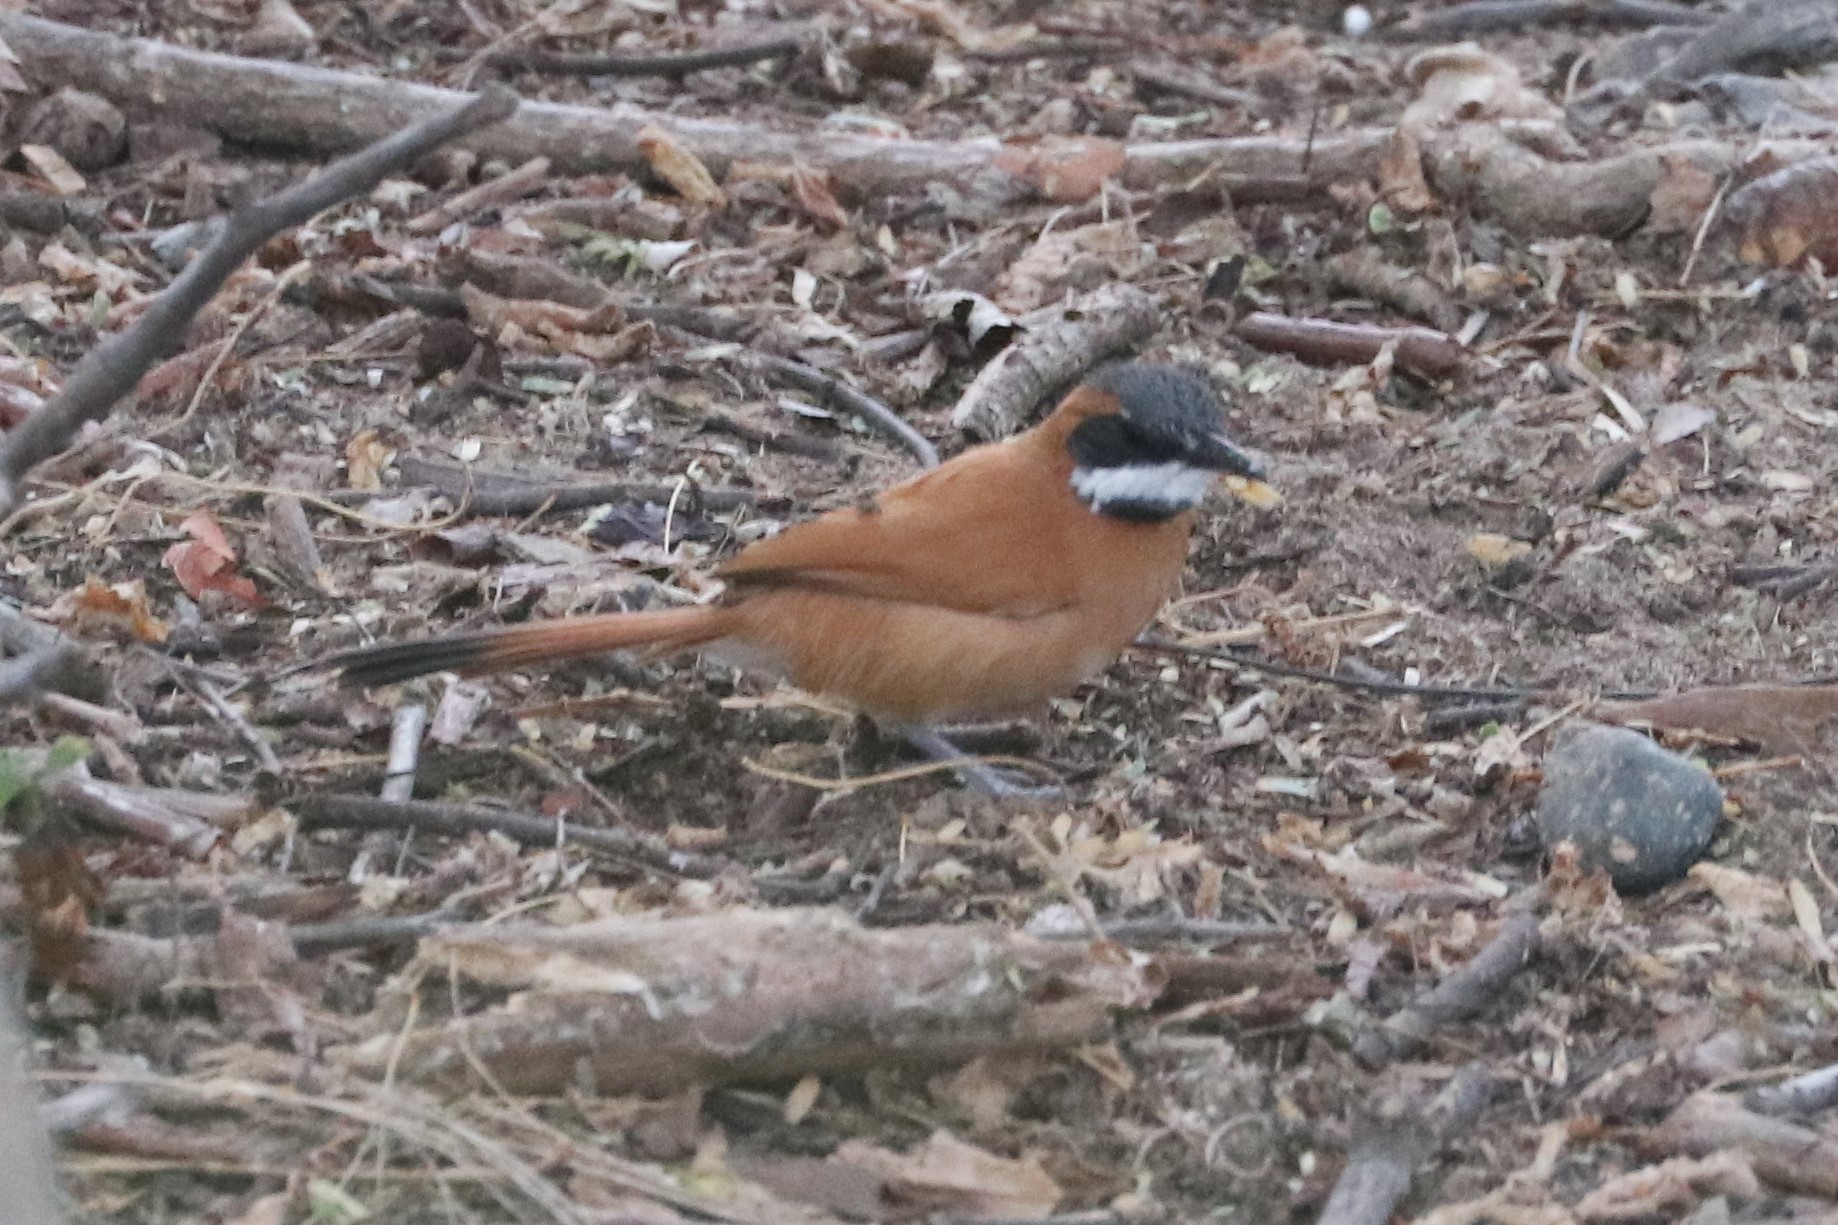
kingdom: Animalia
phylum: Chordata
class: Aves
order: Passeriformes
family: Furnariidae
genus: Synallaxis
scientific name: Synallaxis candei
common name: White-whiskered spinetail
